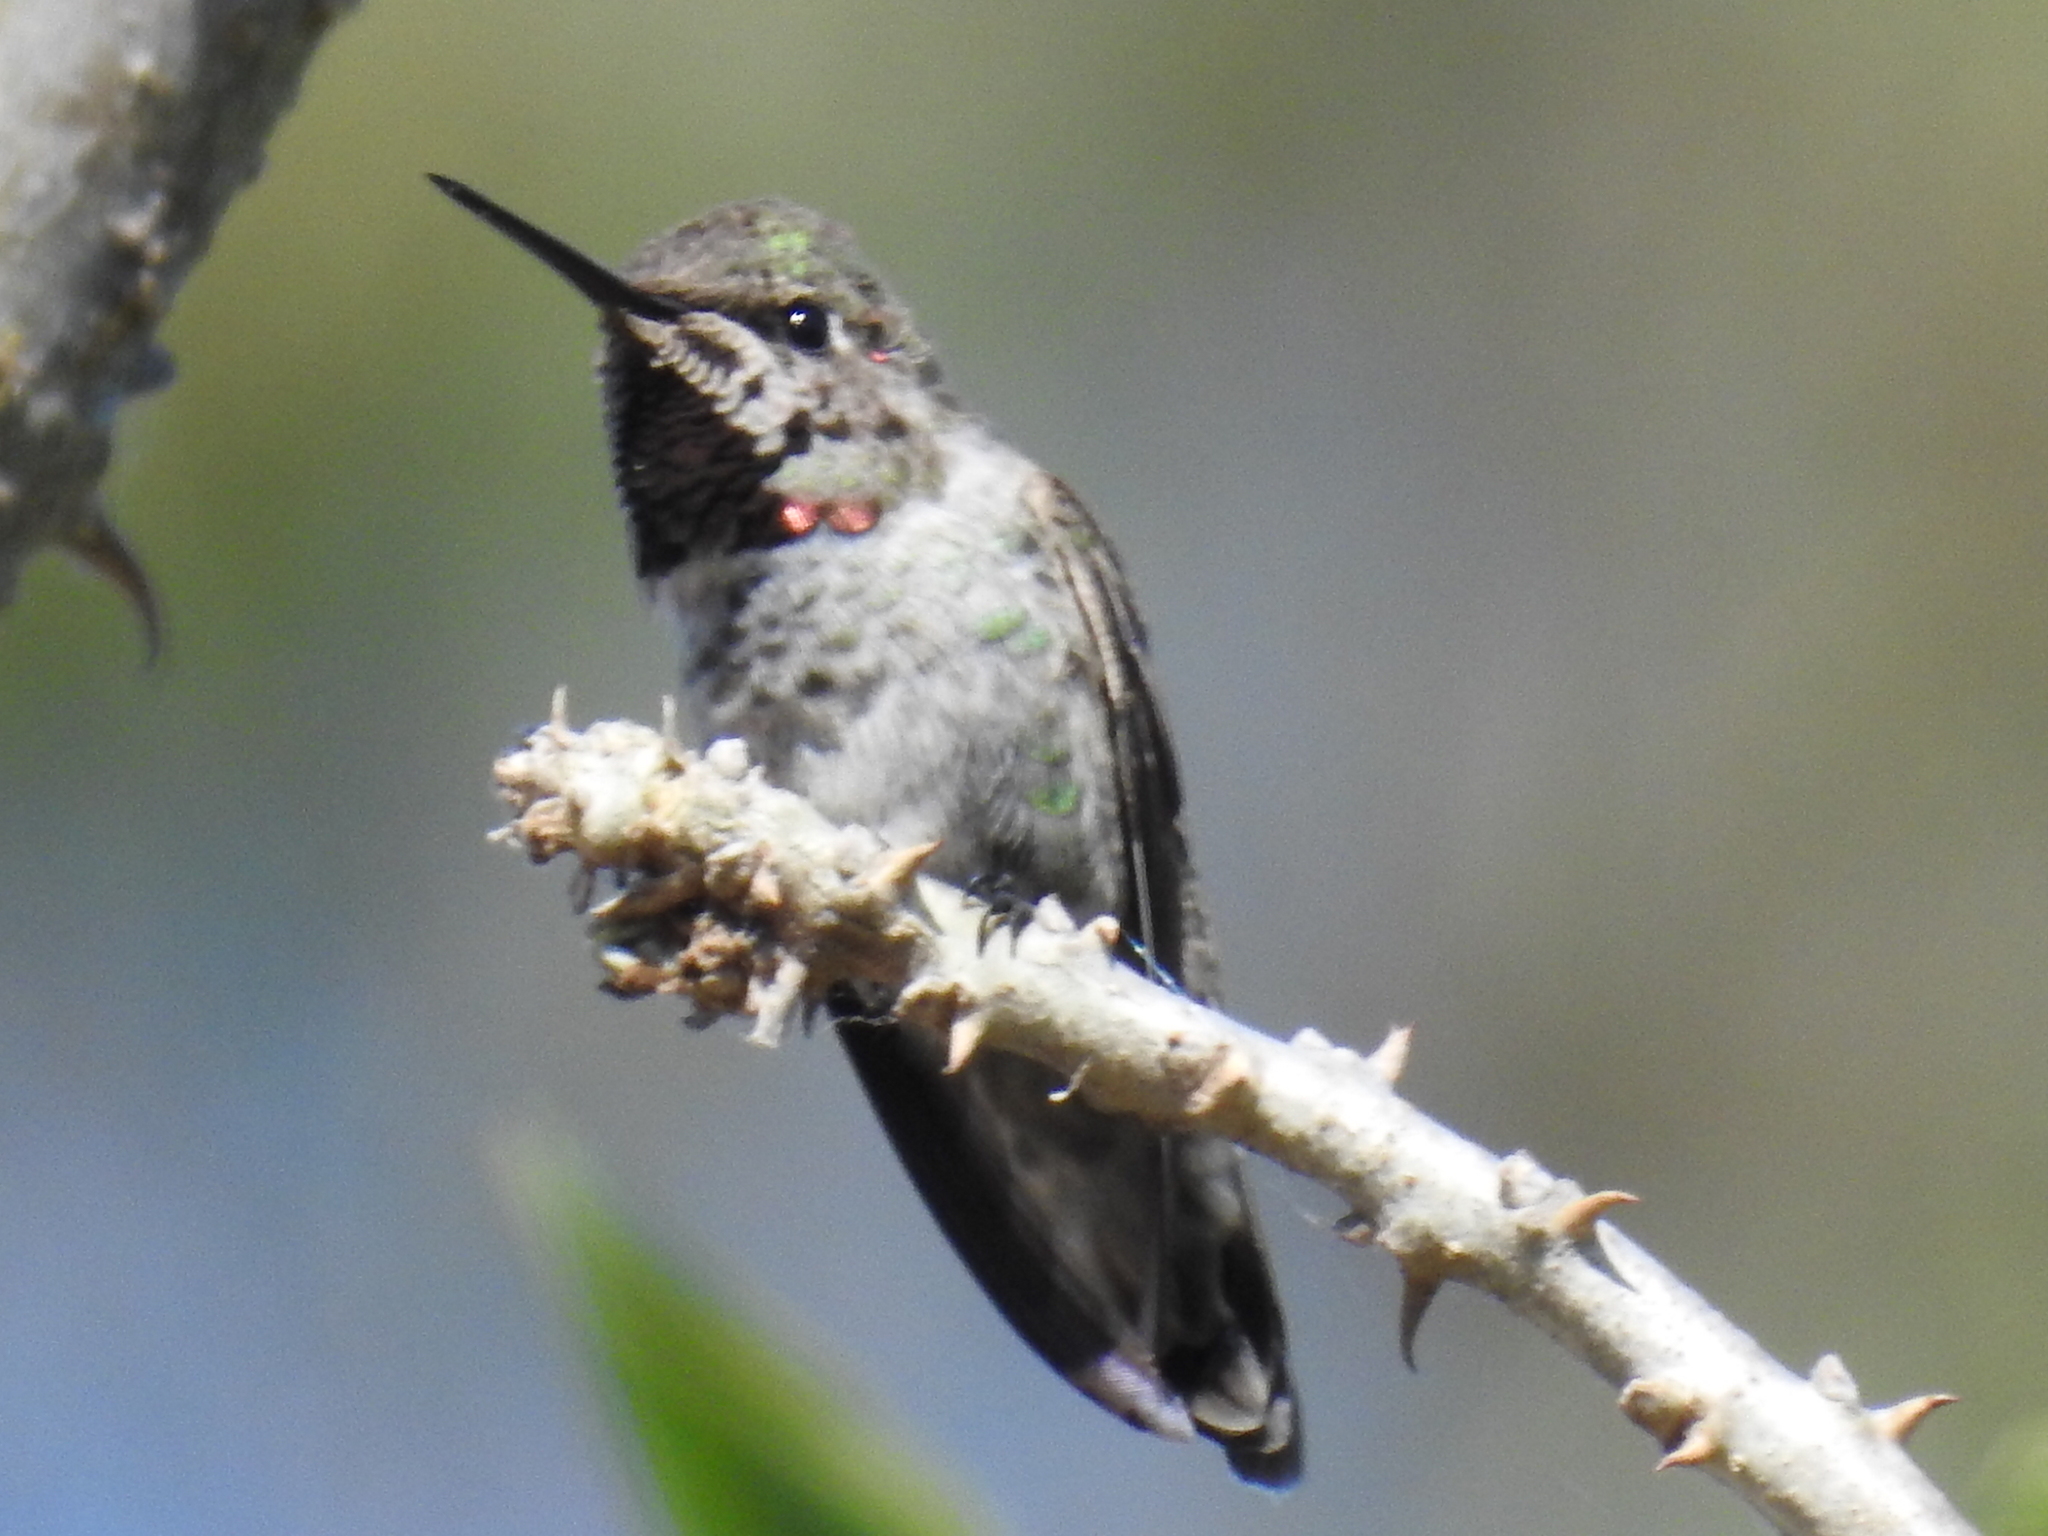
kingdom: Animalia
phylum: Chordata
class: Aves
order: Apodiformes
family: Trochilidae
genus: Calypte
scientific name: Calypte anna
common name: Anna's hummingbird
